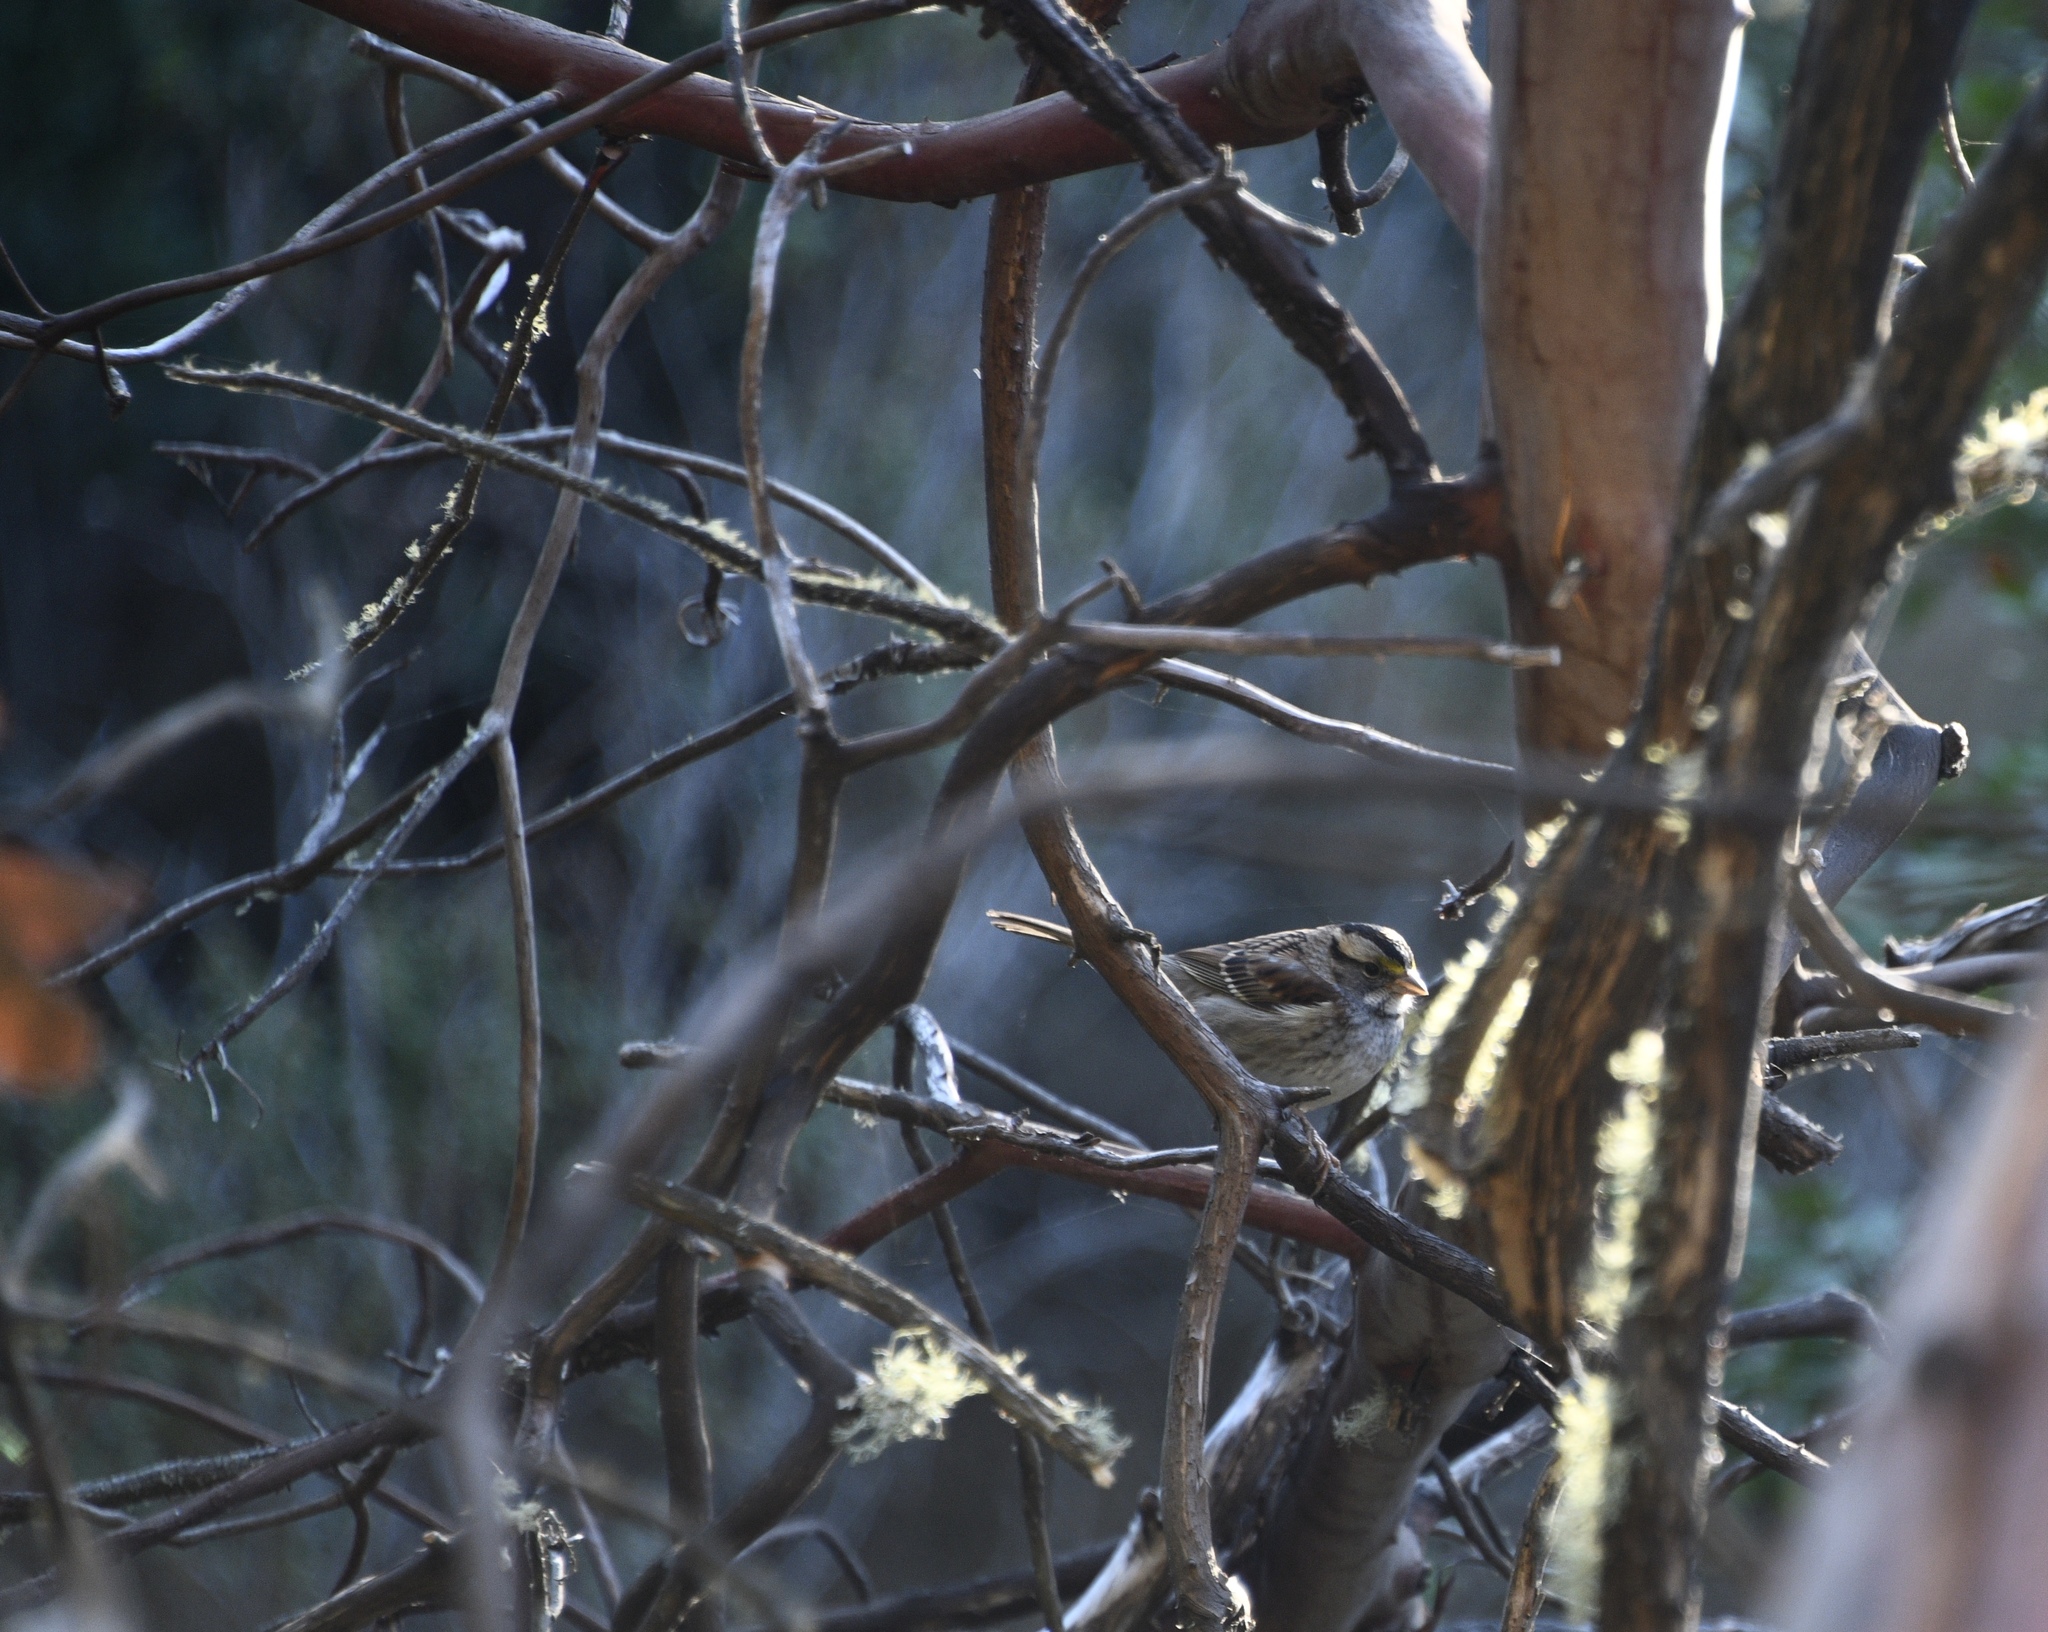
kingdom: Animalia
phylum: Chordata
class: Aves
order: Passeriformes
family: Passerellidae
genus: Zonotrichia
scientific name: Zonotrichia albicollis
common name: White-throated sparrow
